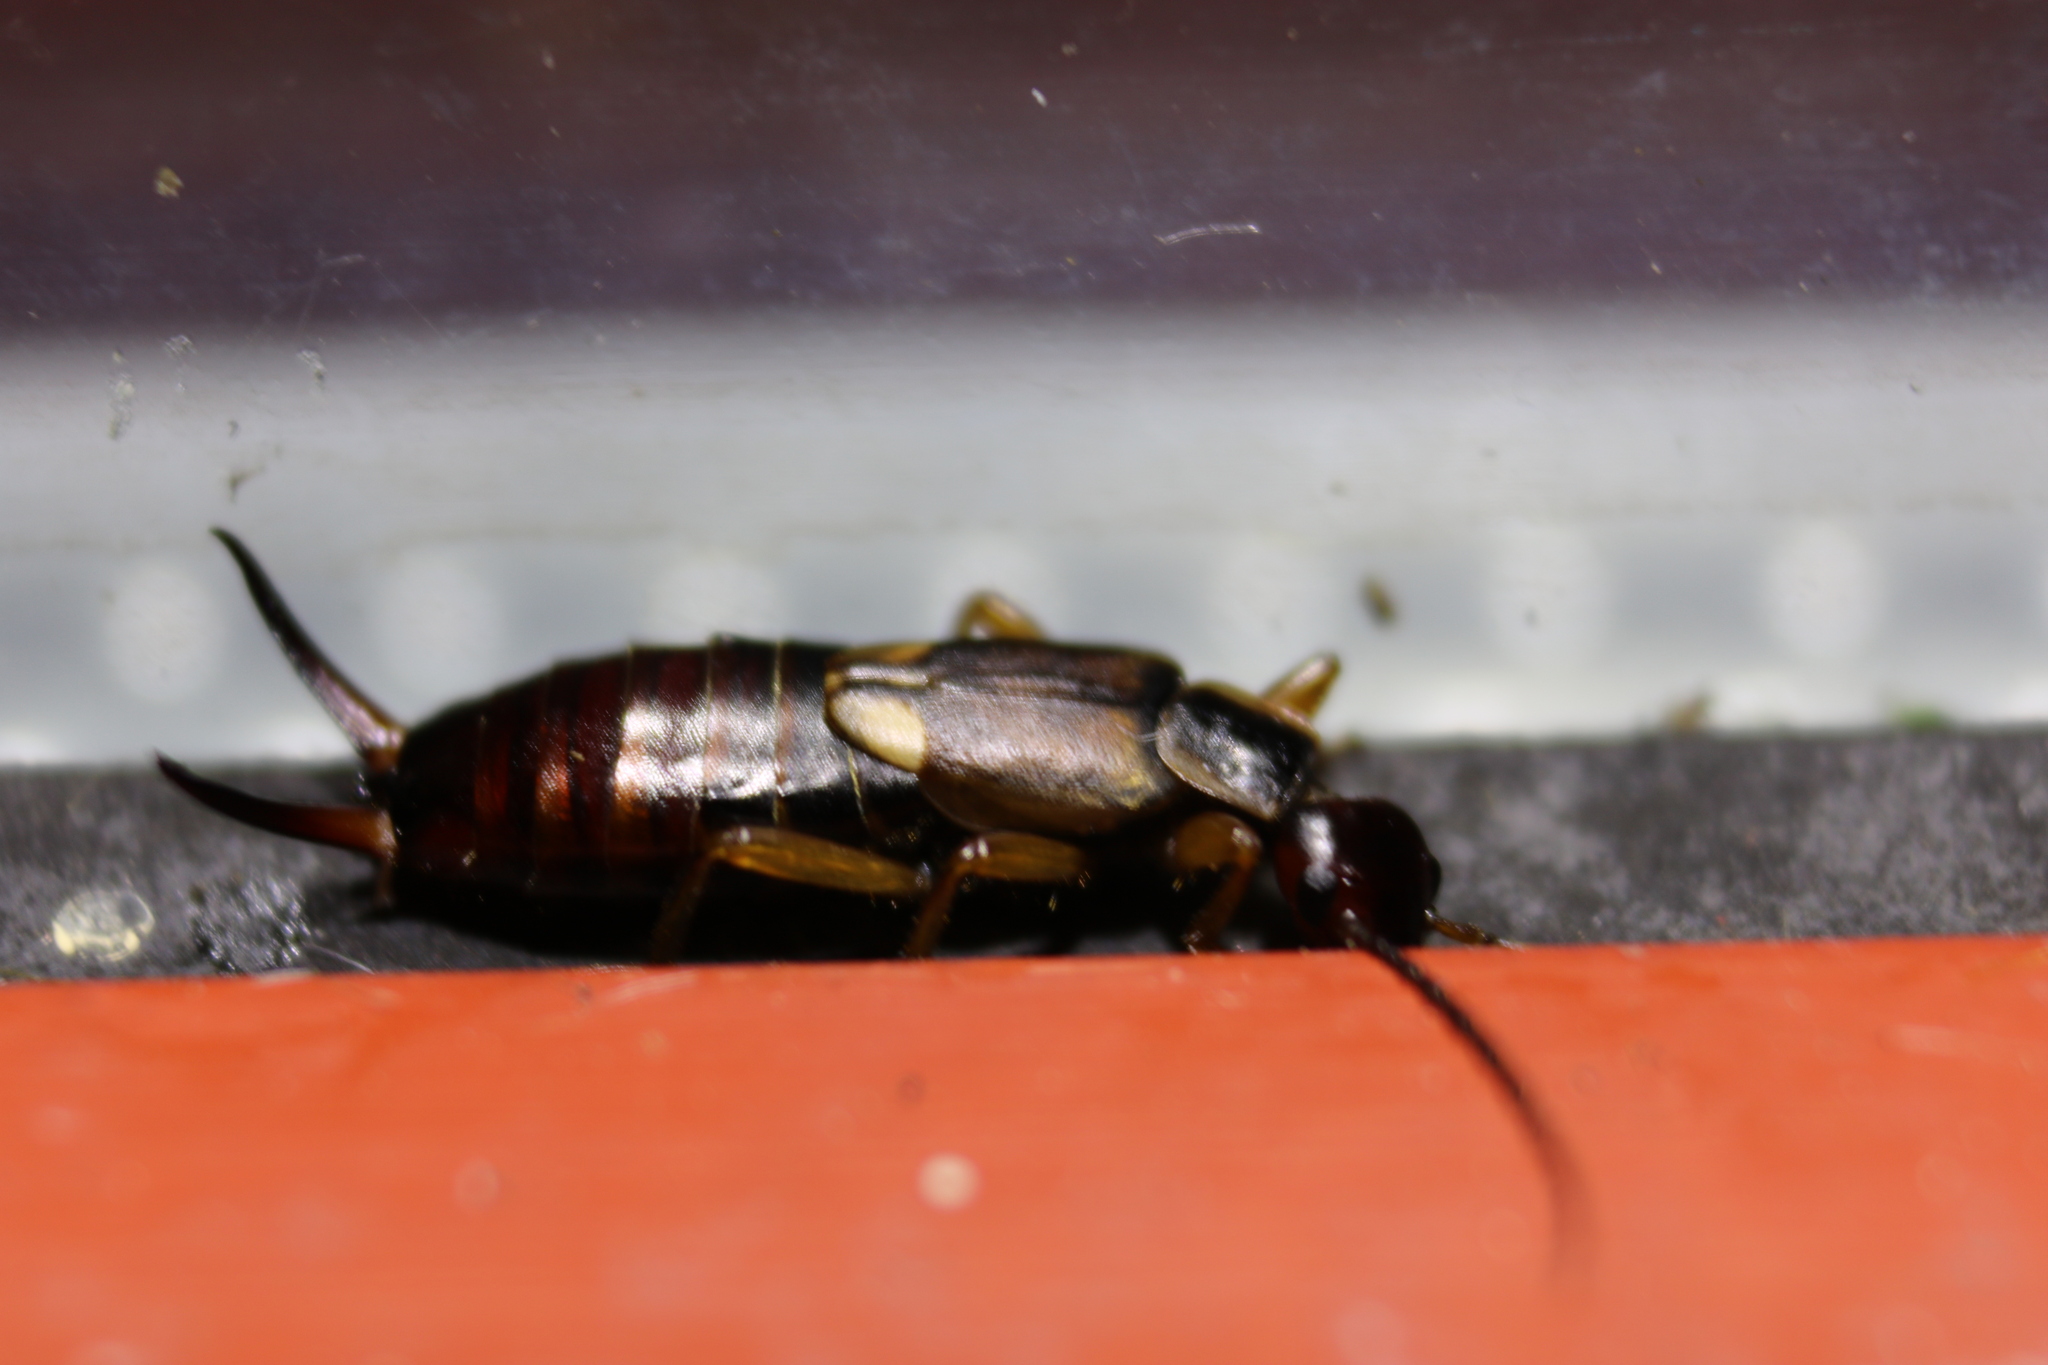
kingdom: Animalia
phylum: Arthropoda
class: Insecta
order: Dermaptera
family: Forficulidae
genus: Forficula
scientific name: Forficula
